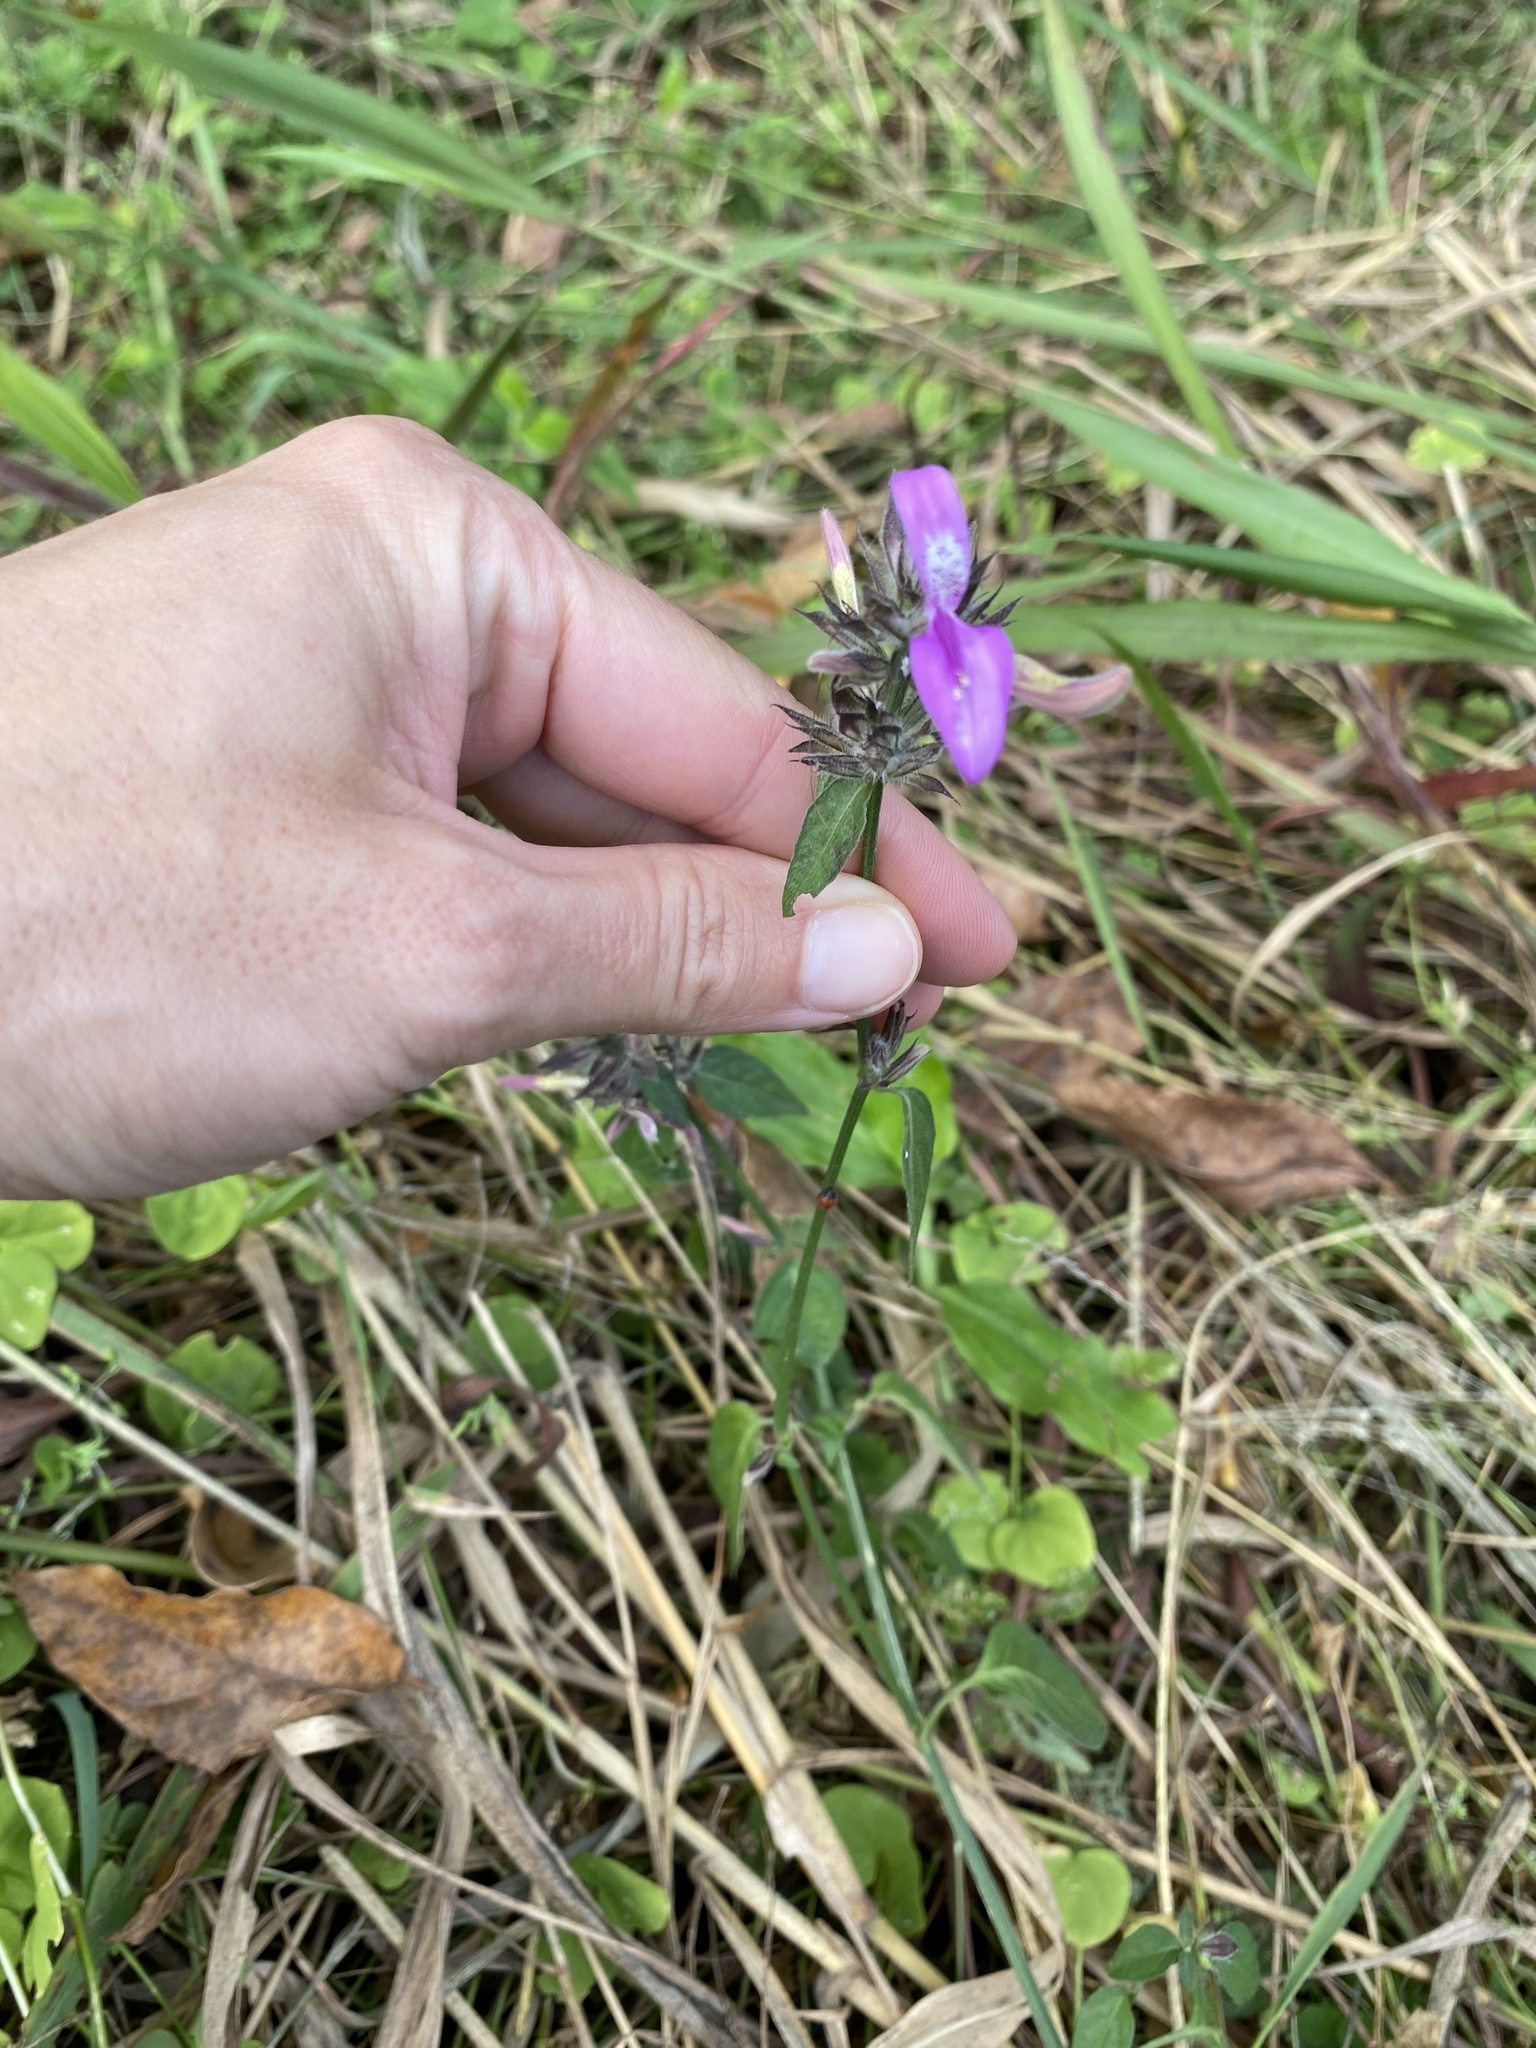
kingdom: Plantae
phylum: Tracheophyta
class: Magnoliopsida
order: Lamiales
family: Acanthaceae
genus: Dicliptera
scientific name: Dicliptera clinopodia
